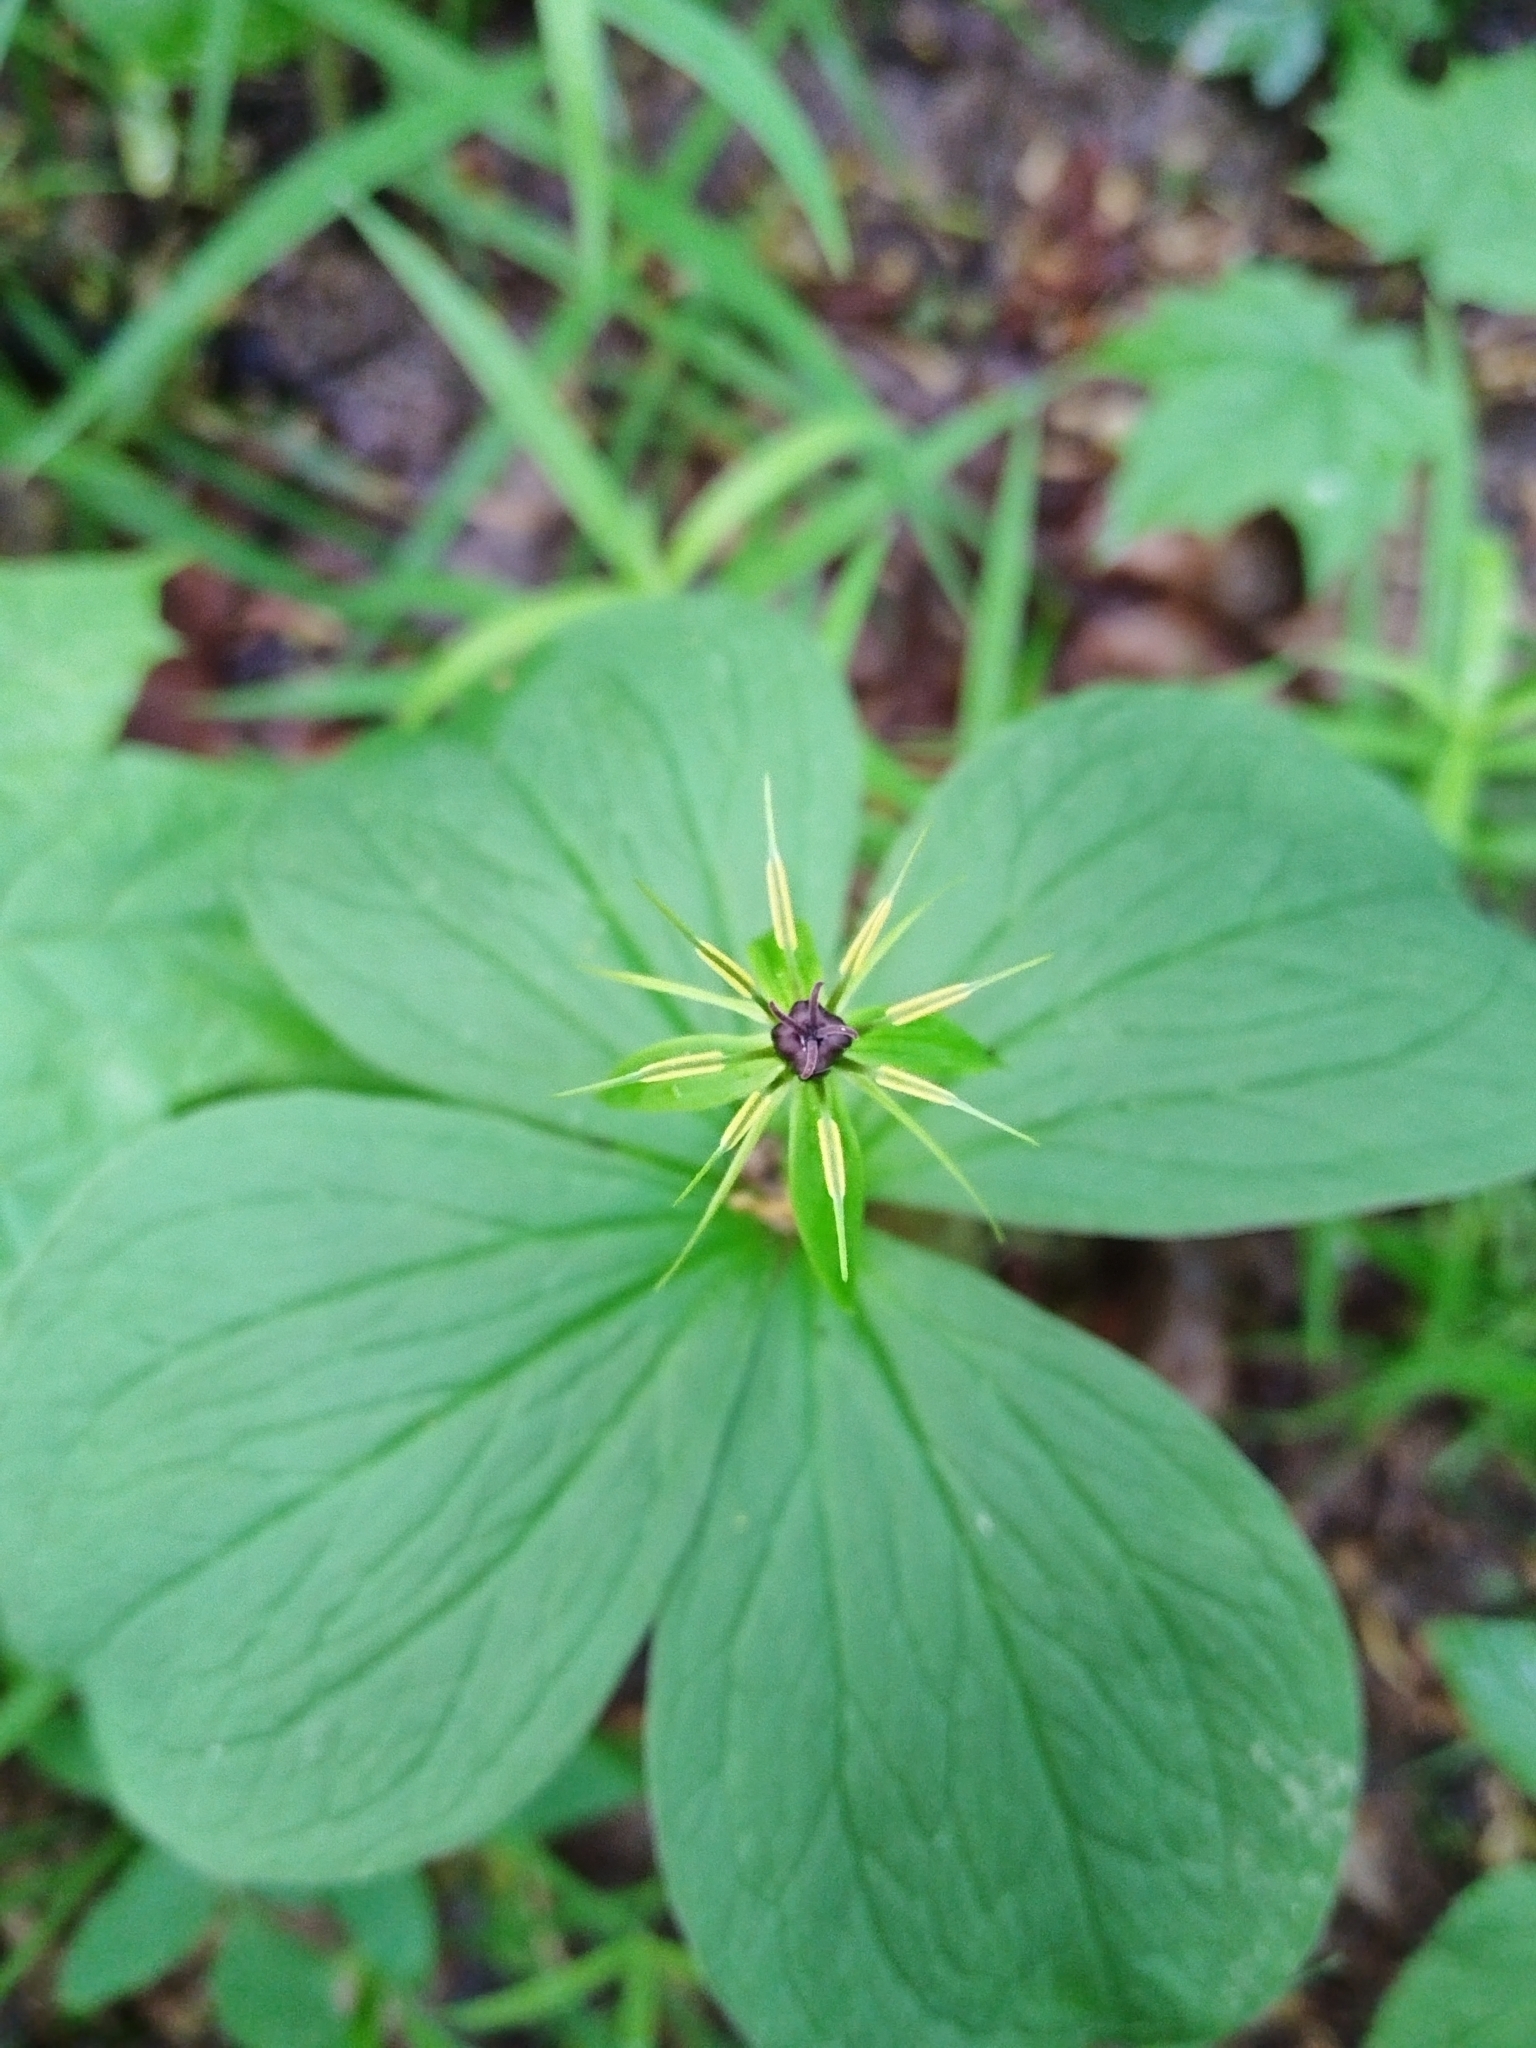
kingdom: Plantae
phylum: Tracheophyta
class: Liliopsida
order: Liliales
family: Melanthiaceae
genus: Paris
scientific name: Paris quadrifolia
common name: Herb-paris
